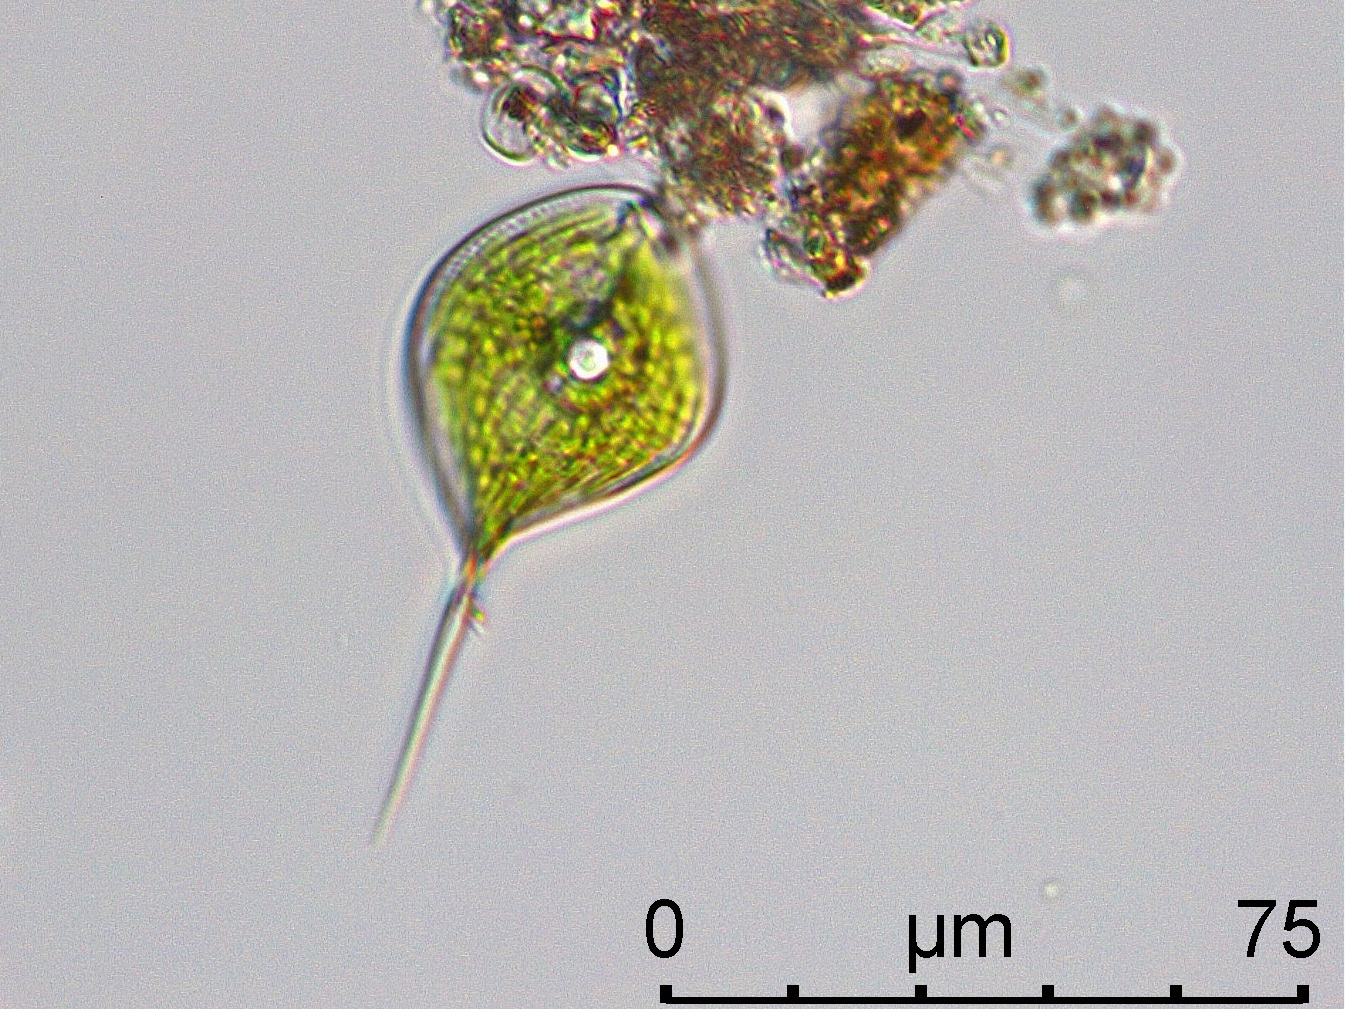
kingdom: Protozoa
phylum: Euglenozoa
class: Euglenoidea
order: Euglenida
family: Phacidae
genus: Phacus
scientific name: Phacus tortus
